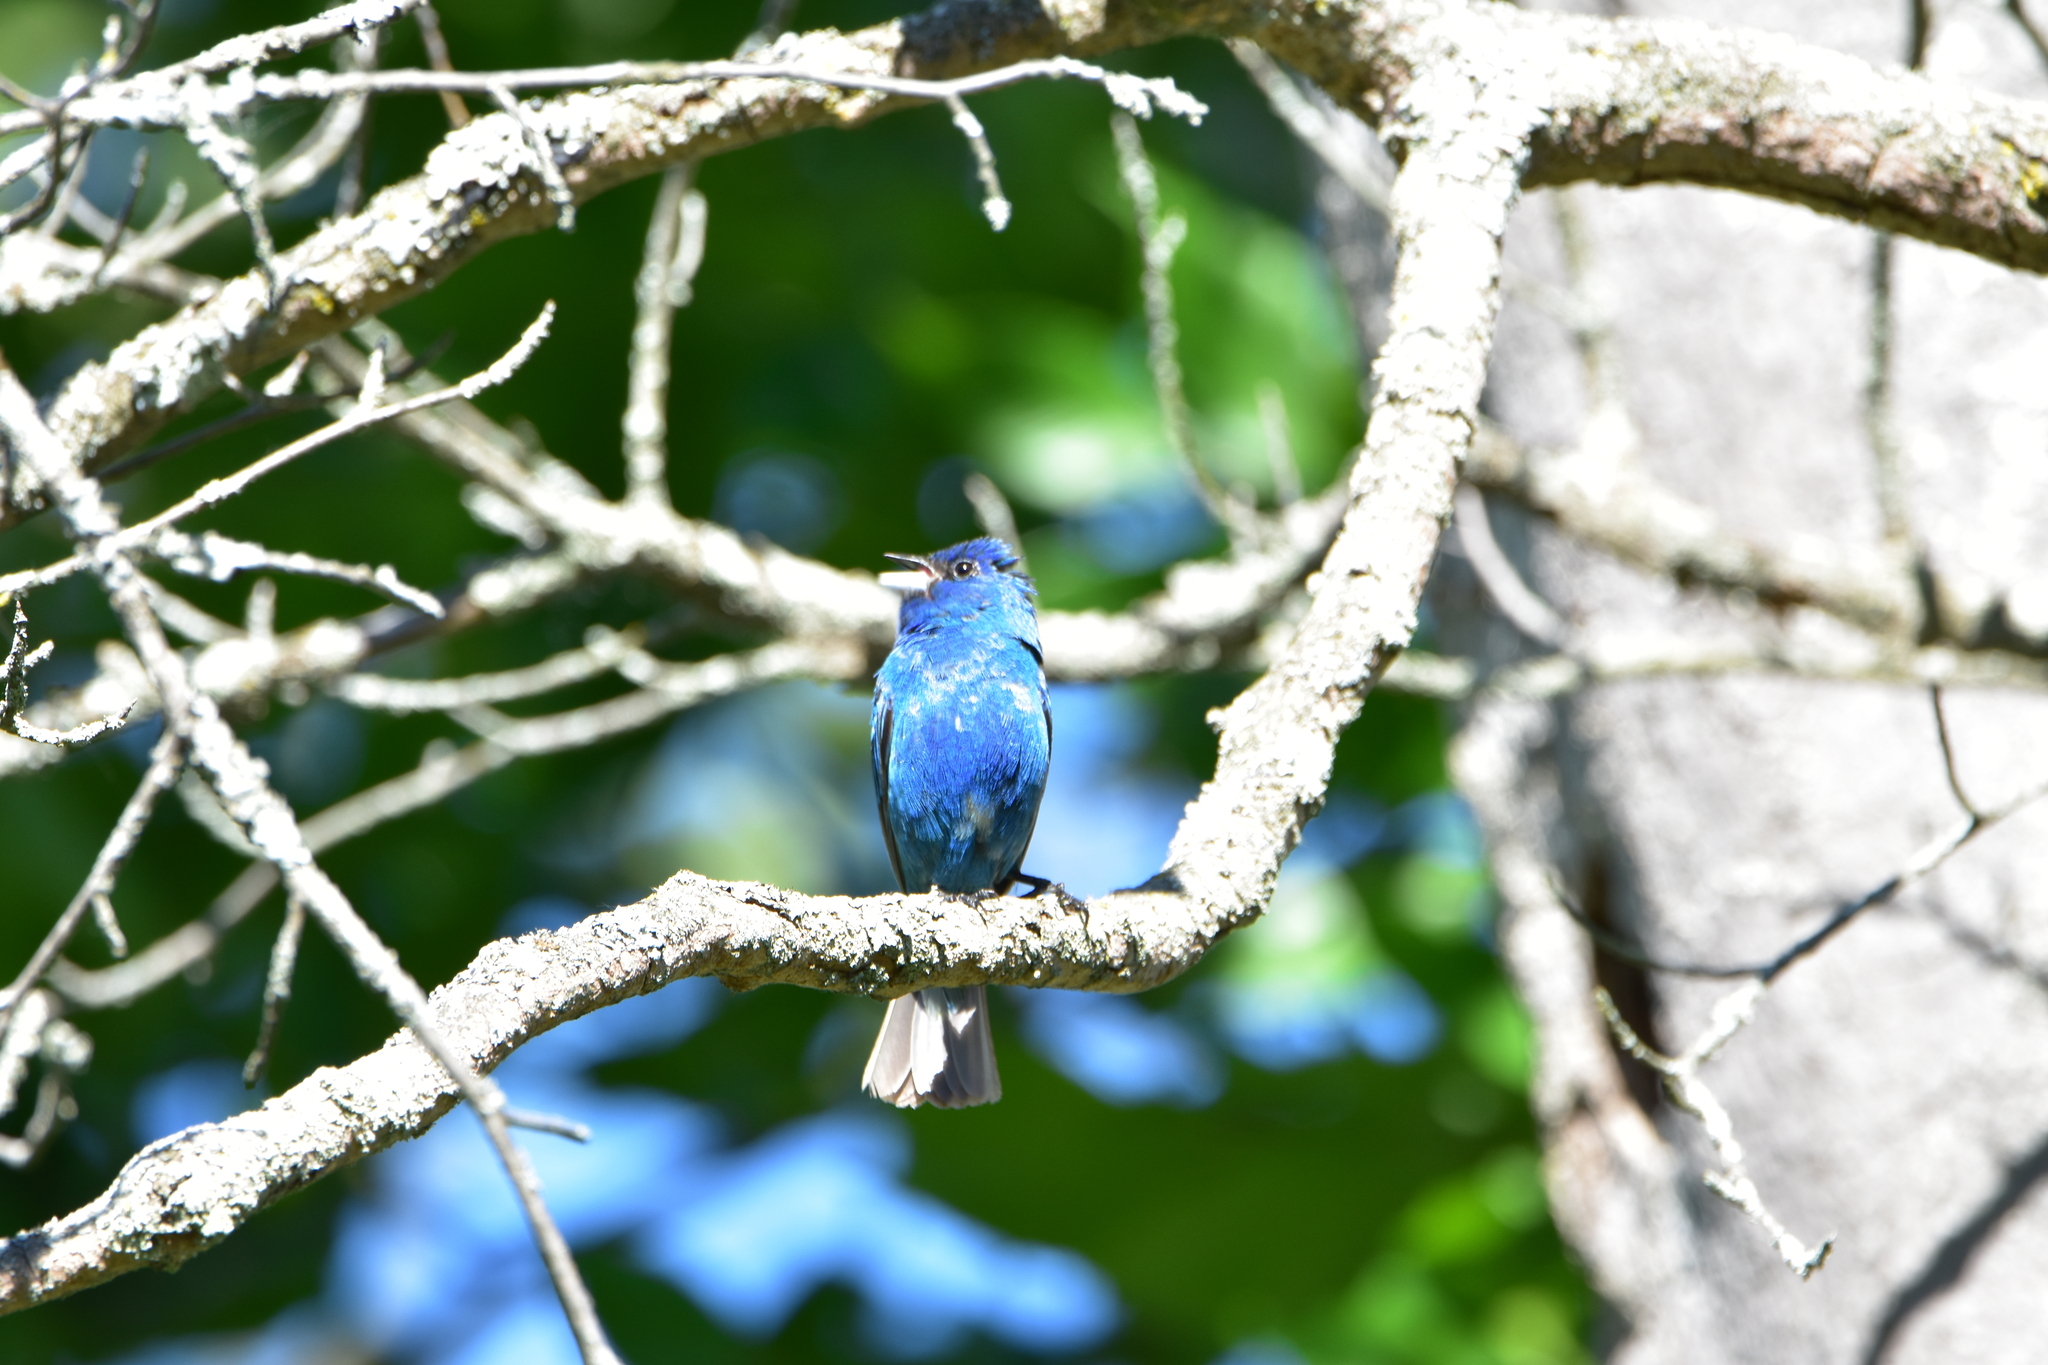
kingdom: Animalia
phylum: Chordata
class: Aves
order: Passeriformes
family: Cardinalidae
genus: Passerina
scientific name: Passerina cyanea
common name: Indigo bunting
